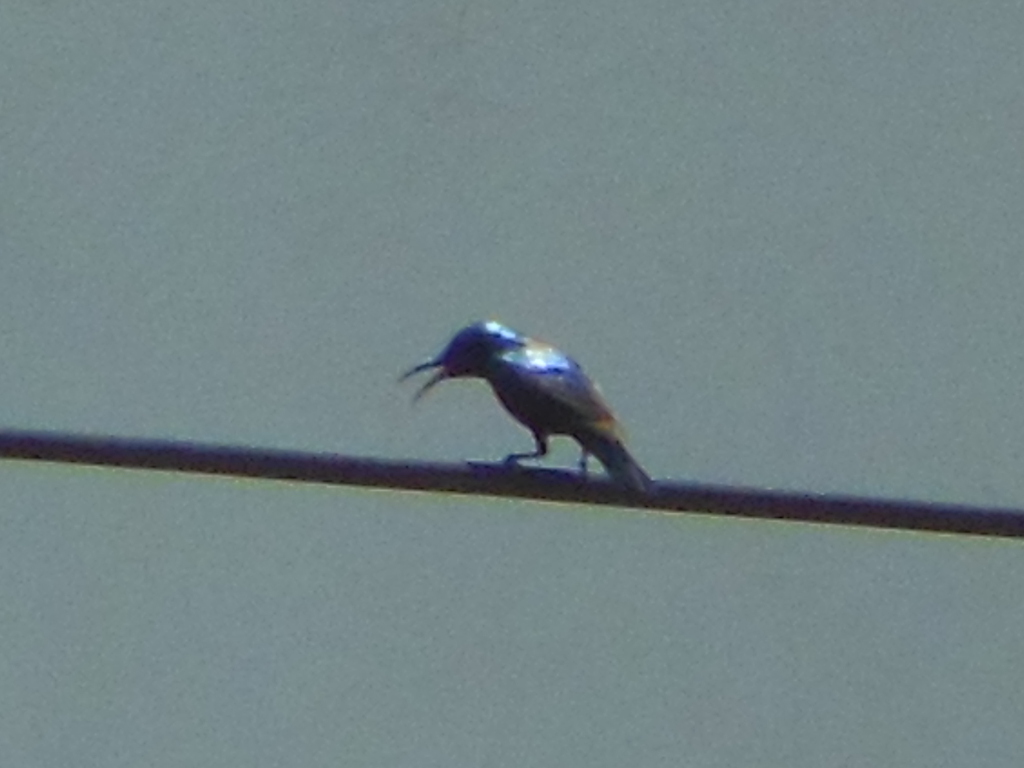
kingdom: Animalia
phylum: Chordata
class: Aves
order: Passeriformes
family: Nectariniidae
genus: Cinnyris
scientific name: Cinnyris asiaticus
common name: Purple sunbird
